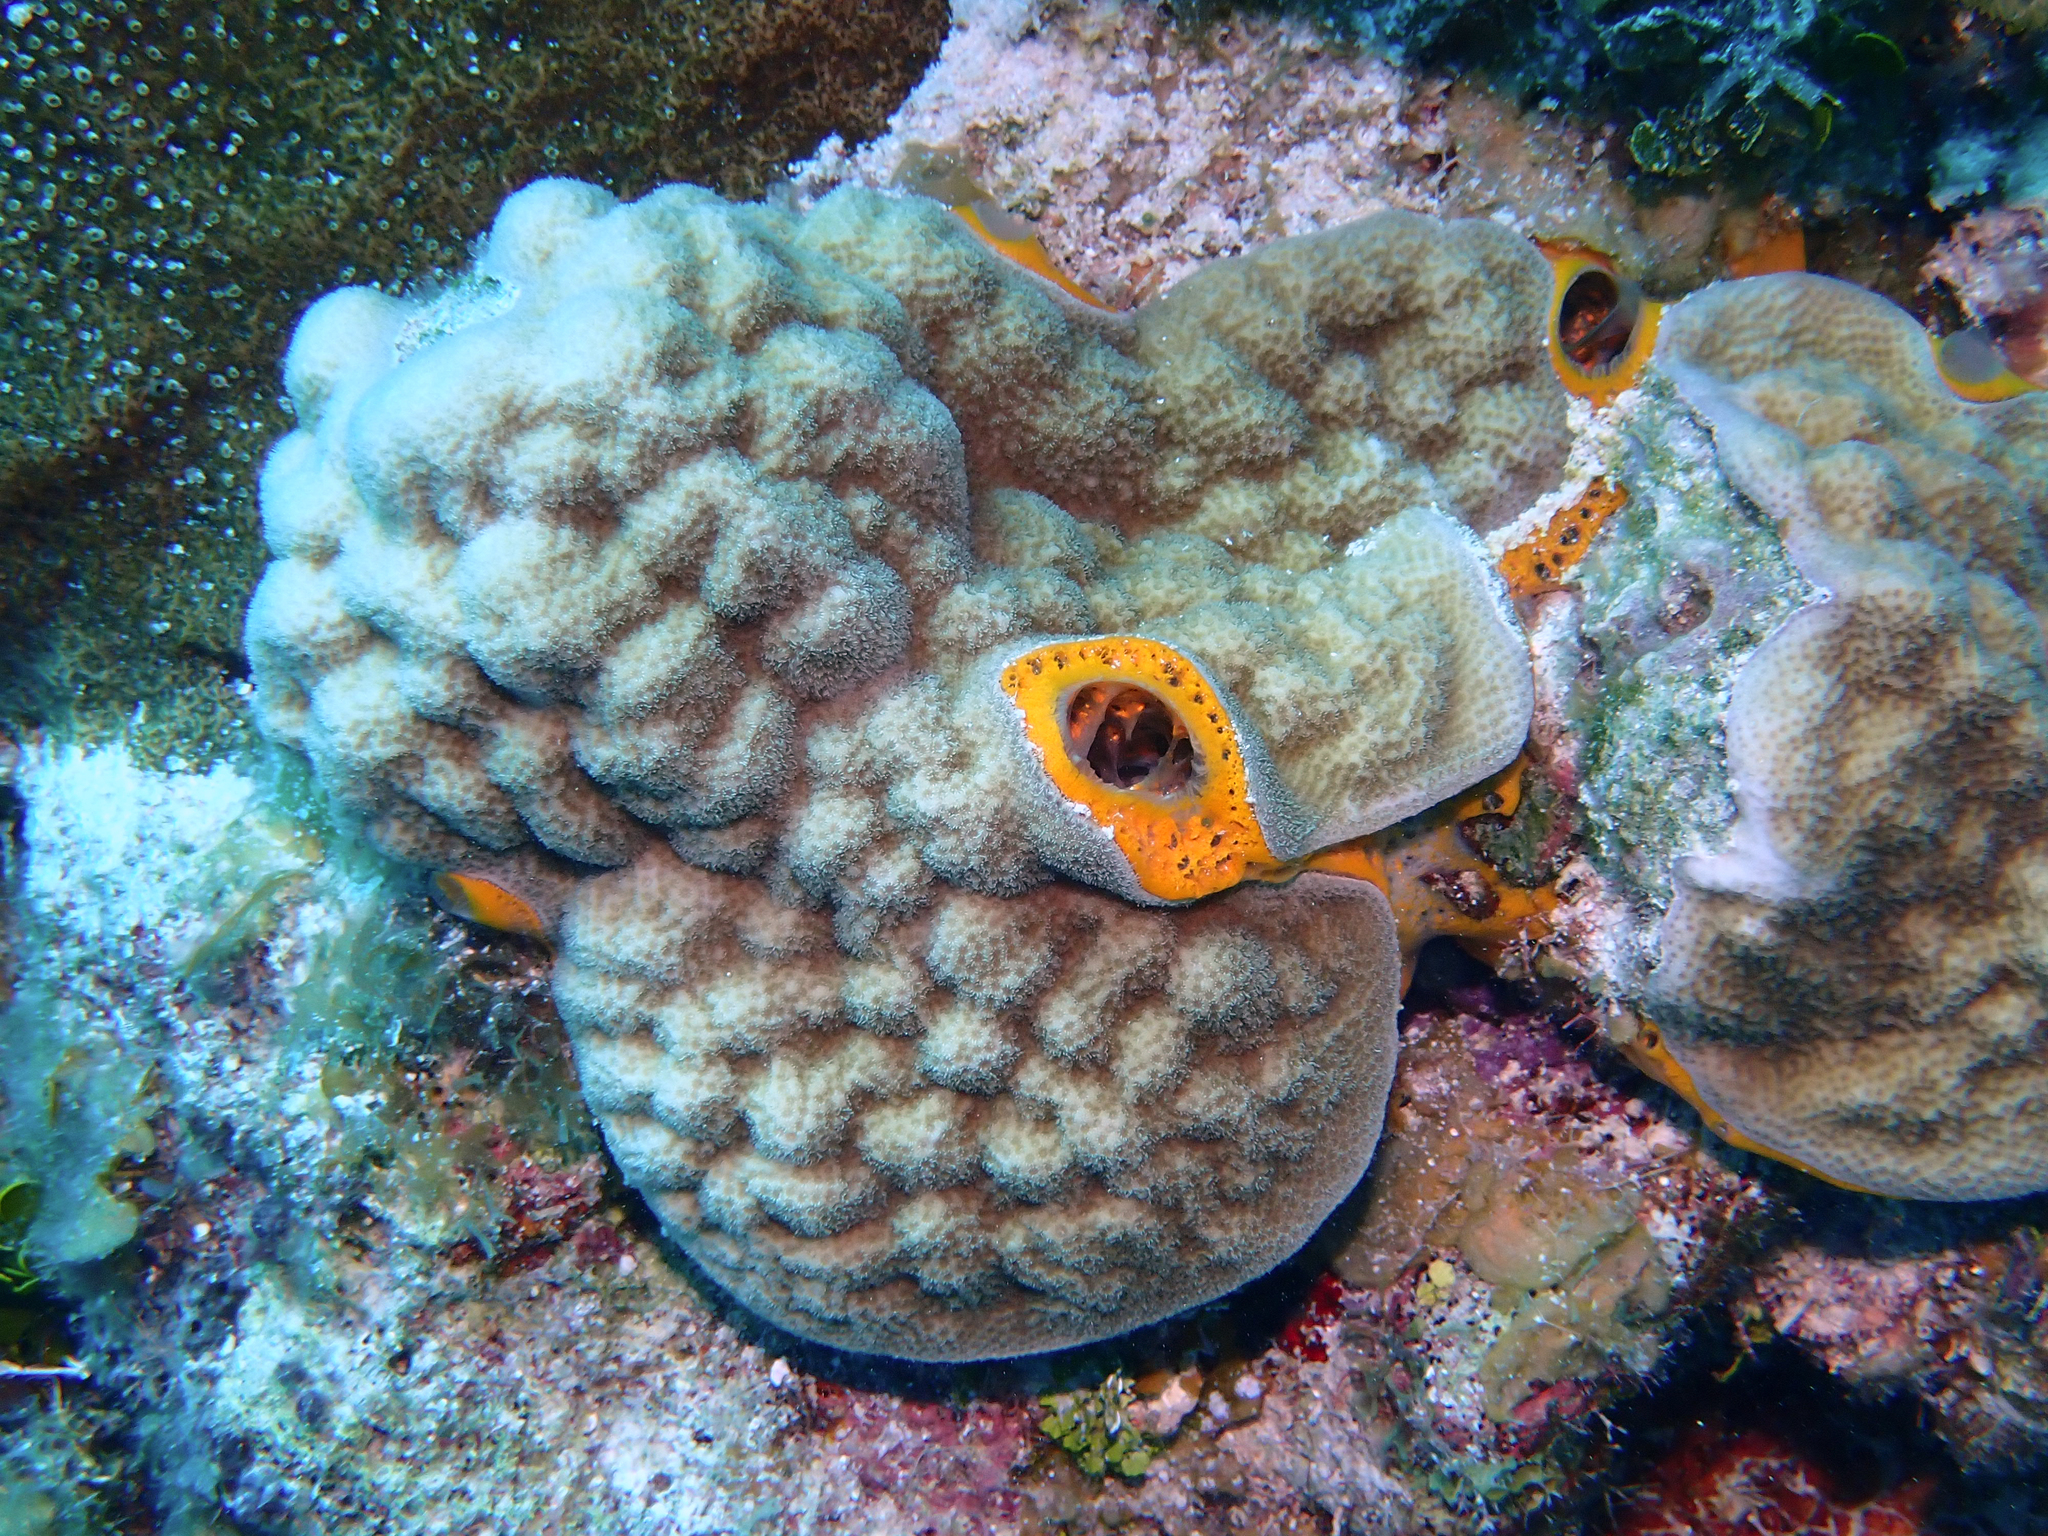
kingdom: Animalia
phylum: Porifera
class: Demospongiae
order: Poecilosclerida
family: Mycalidae
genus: Mycale
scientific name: Mycale laevis
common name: Orange icing sponge
